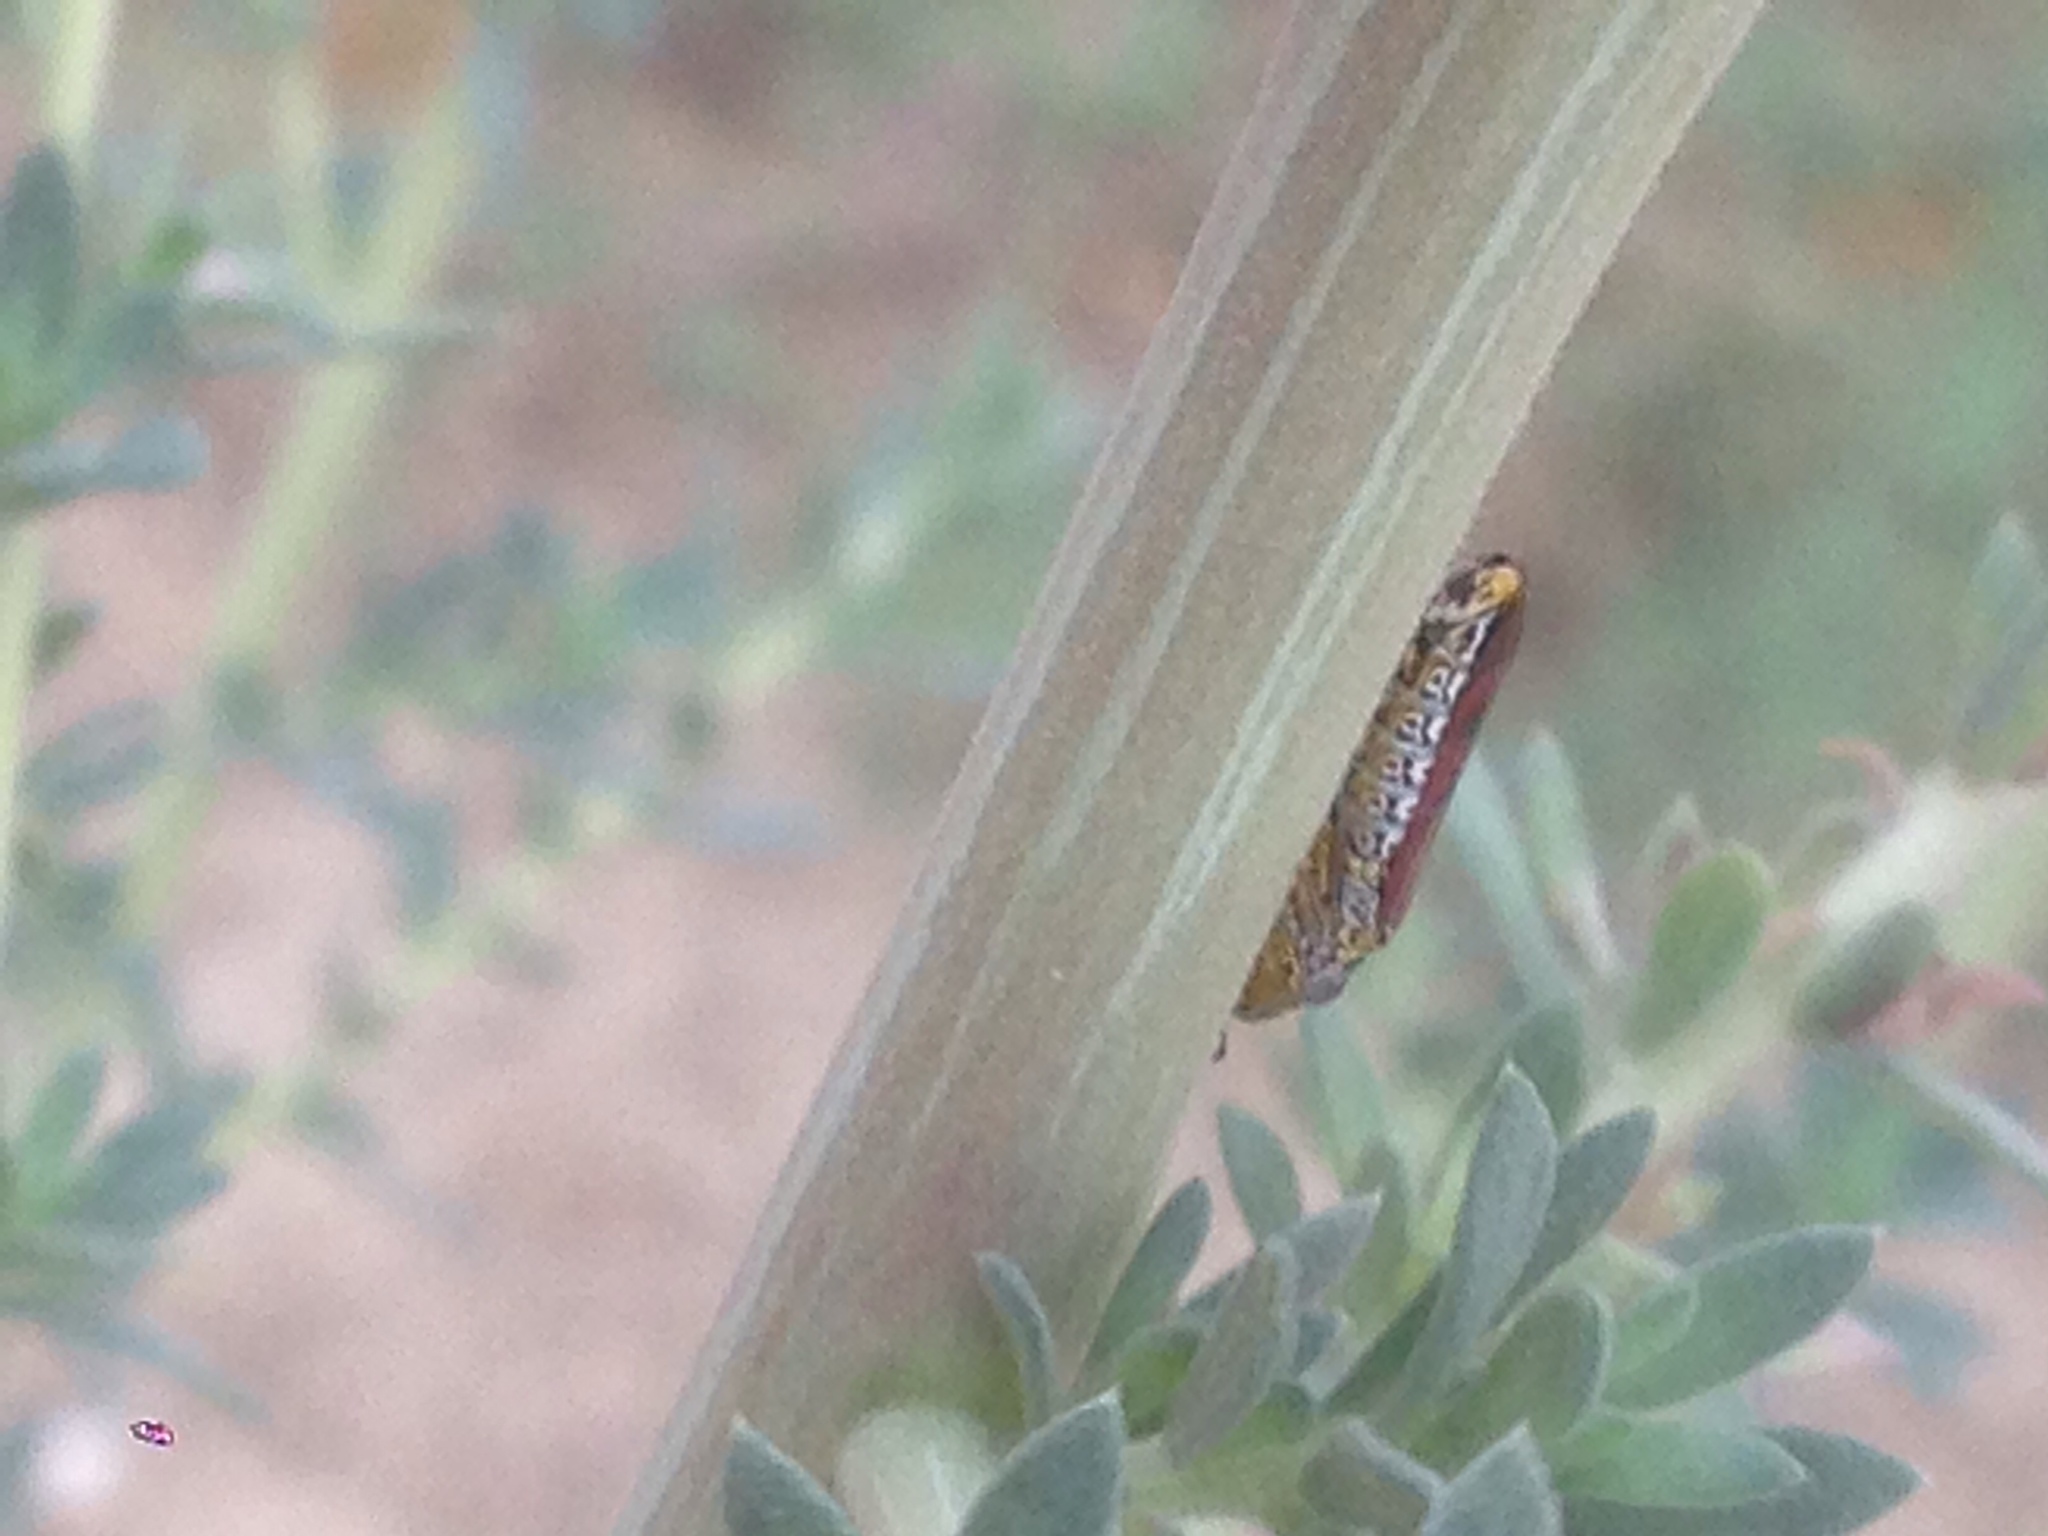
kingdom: Animalia
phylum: Arthropoda
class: Insecta
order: Hemiptera
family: Cicadellidae
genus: Homalodisca
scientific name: Homalodisca vitripennis
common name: Glassy-winged sharpshooter
